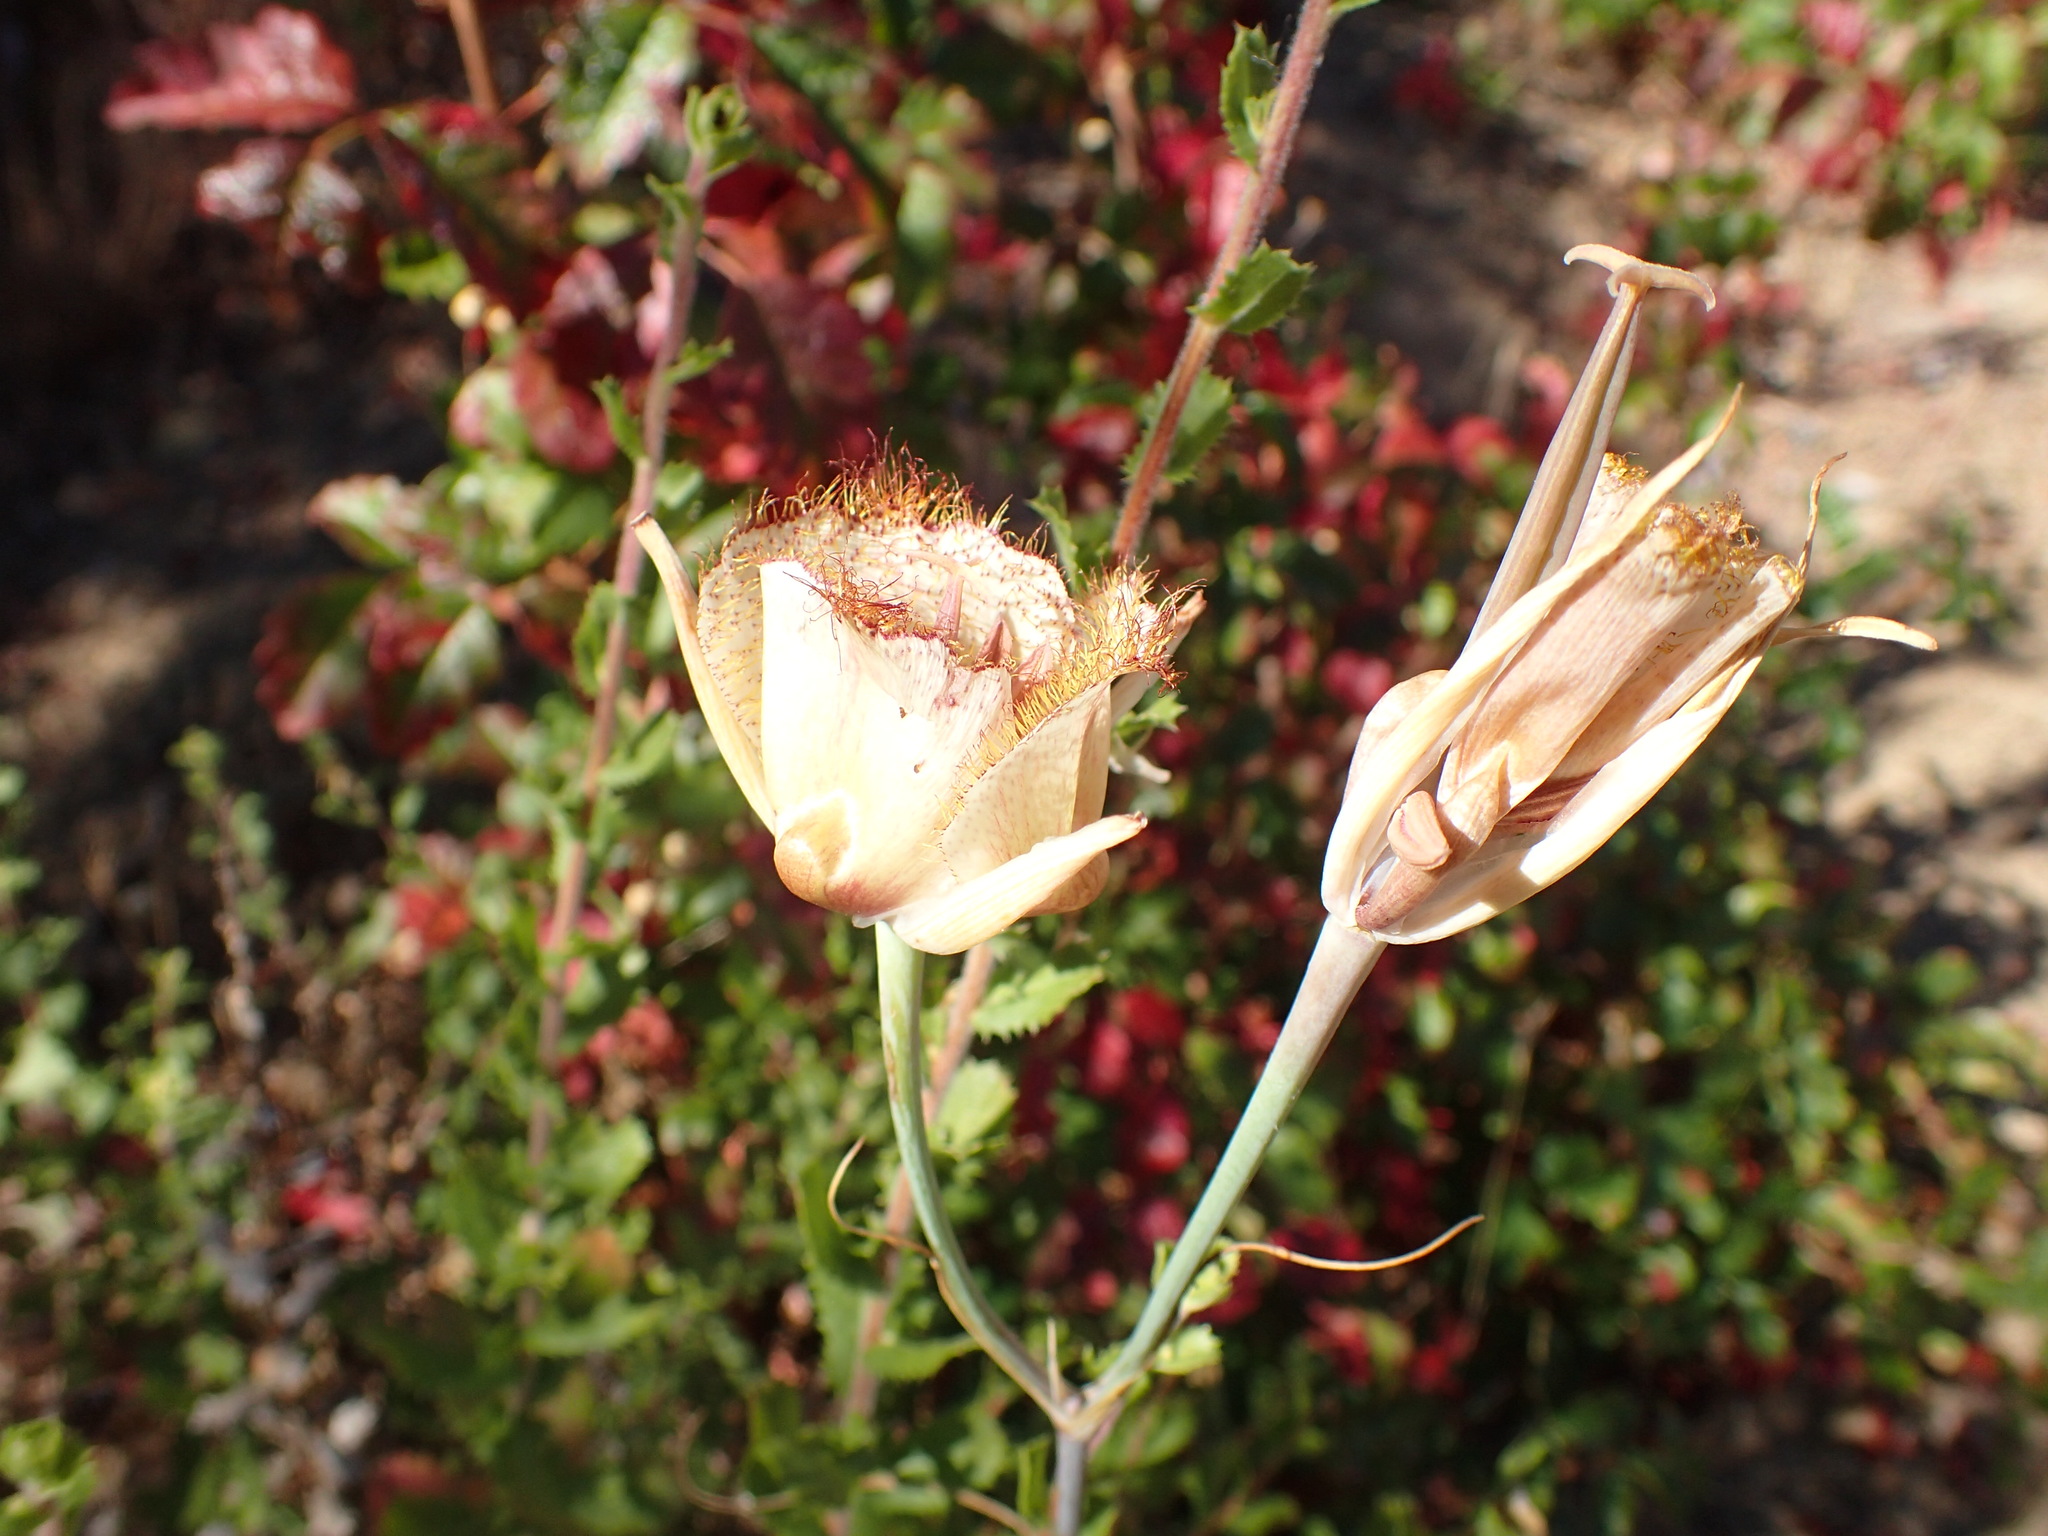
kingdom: Plantae
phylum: Tracheophyta
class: Liliopsida
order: Liliales
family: Liliaceae
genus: Calochortus
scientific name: Calochortus fimbriatus
